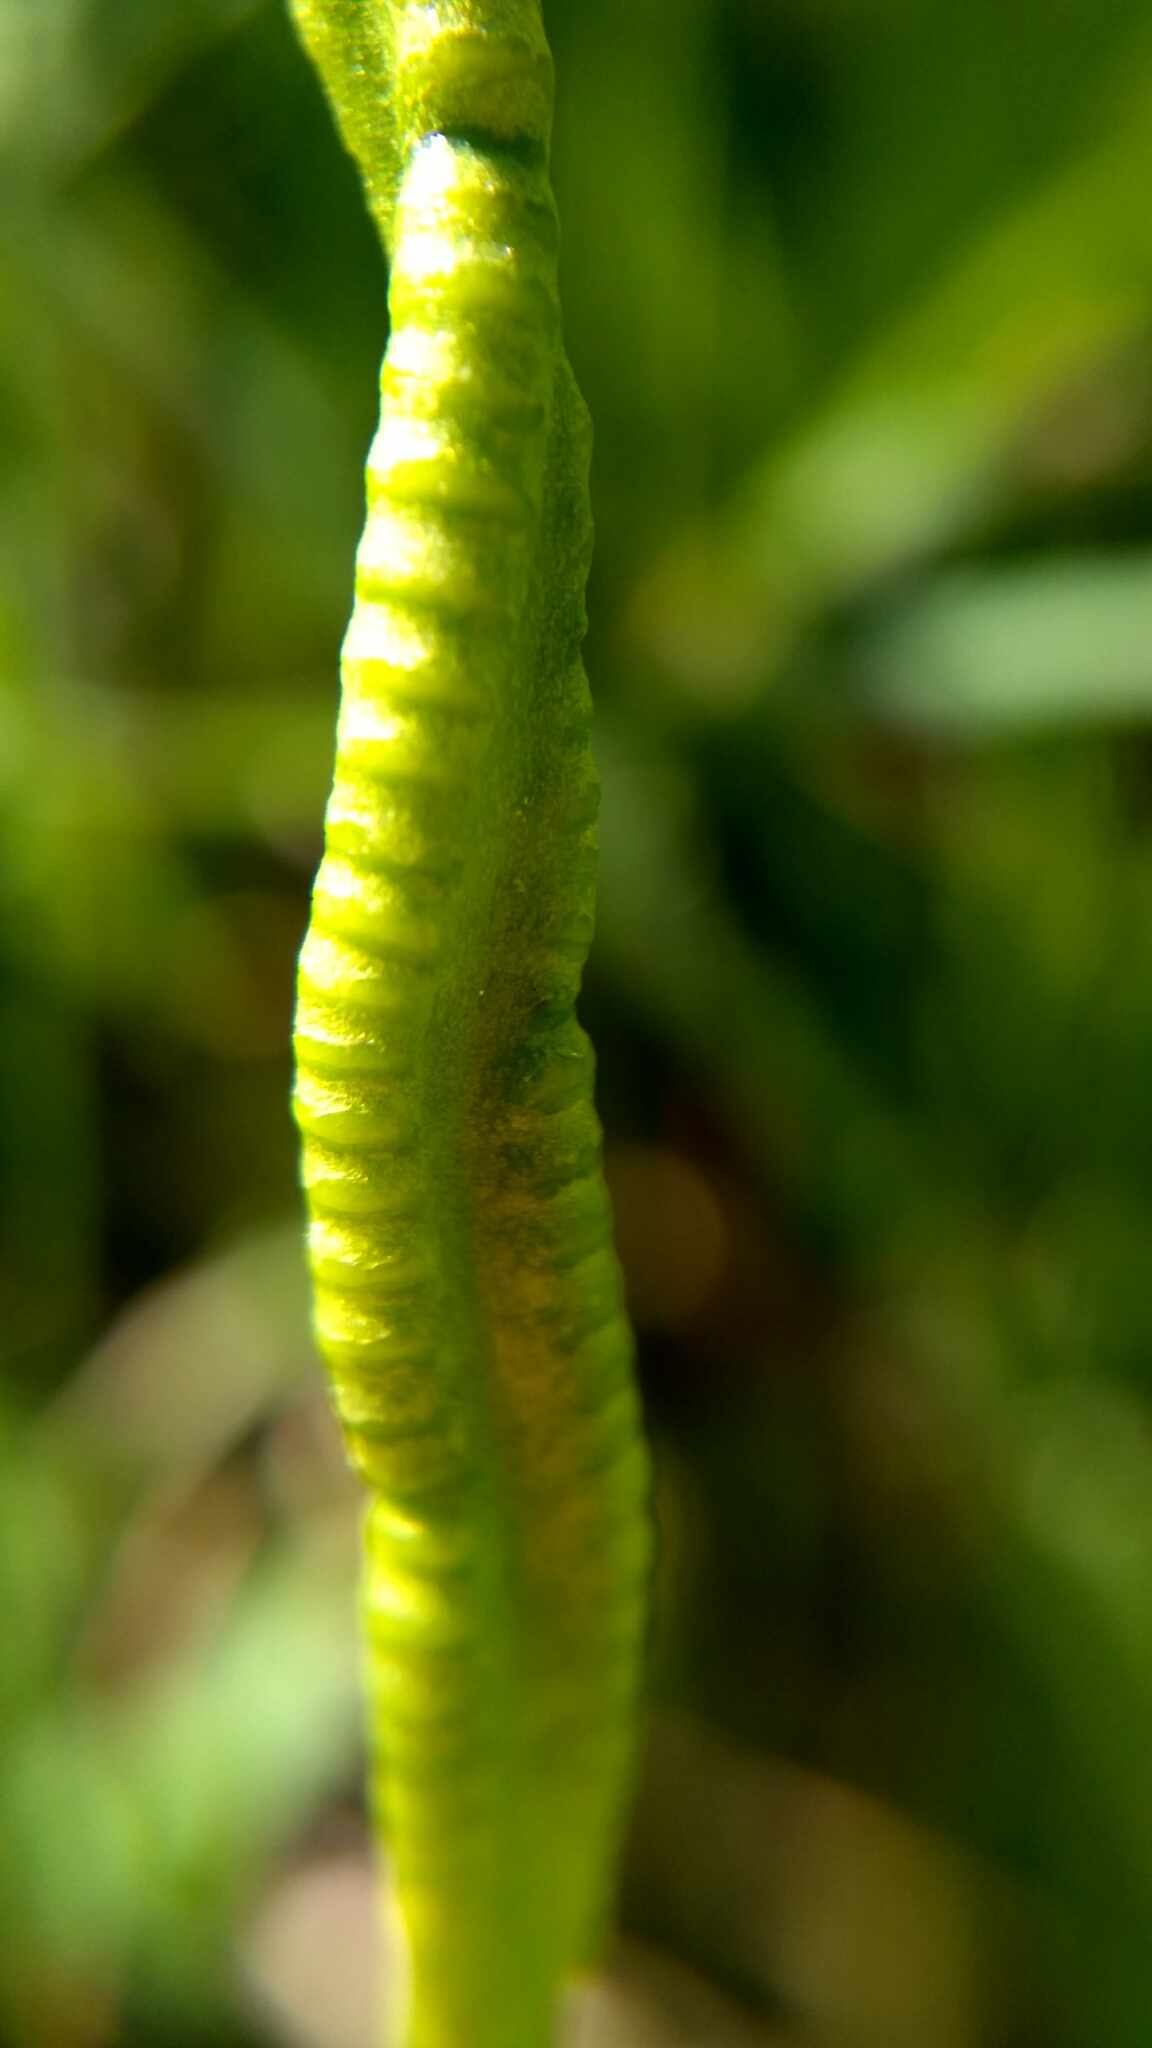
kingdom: Plantae
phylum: Tracheophyta
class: Polypodiopsida
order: Ophioglossales
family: Ophioglossaceae
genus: Ophioglossum
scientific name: Ophioglossum vulgatum
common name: Adder's-tongue
